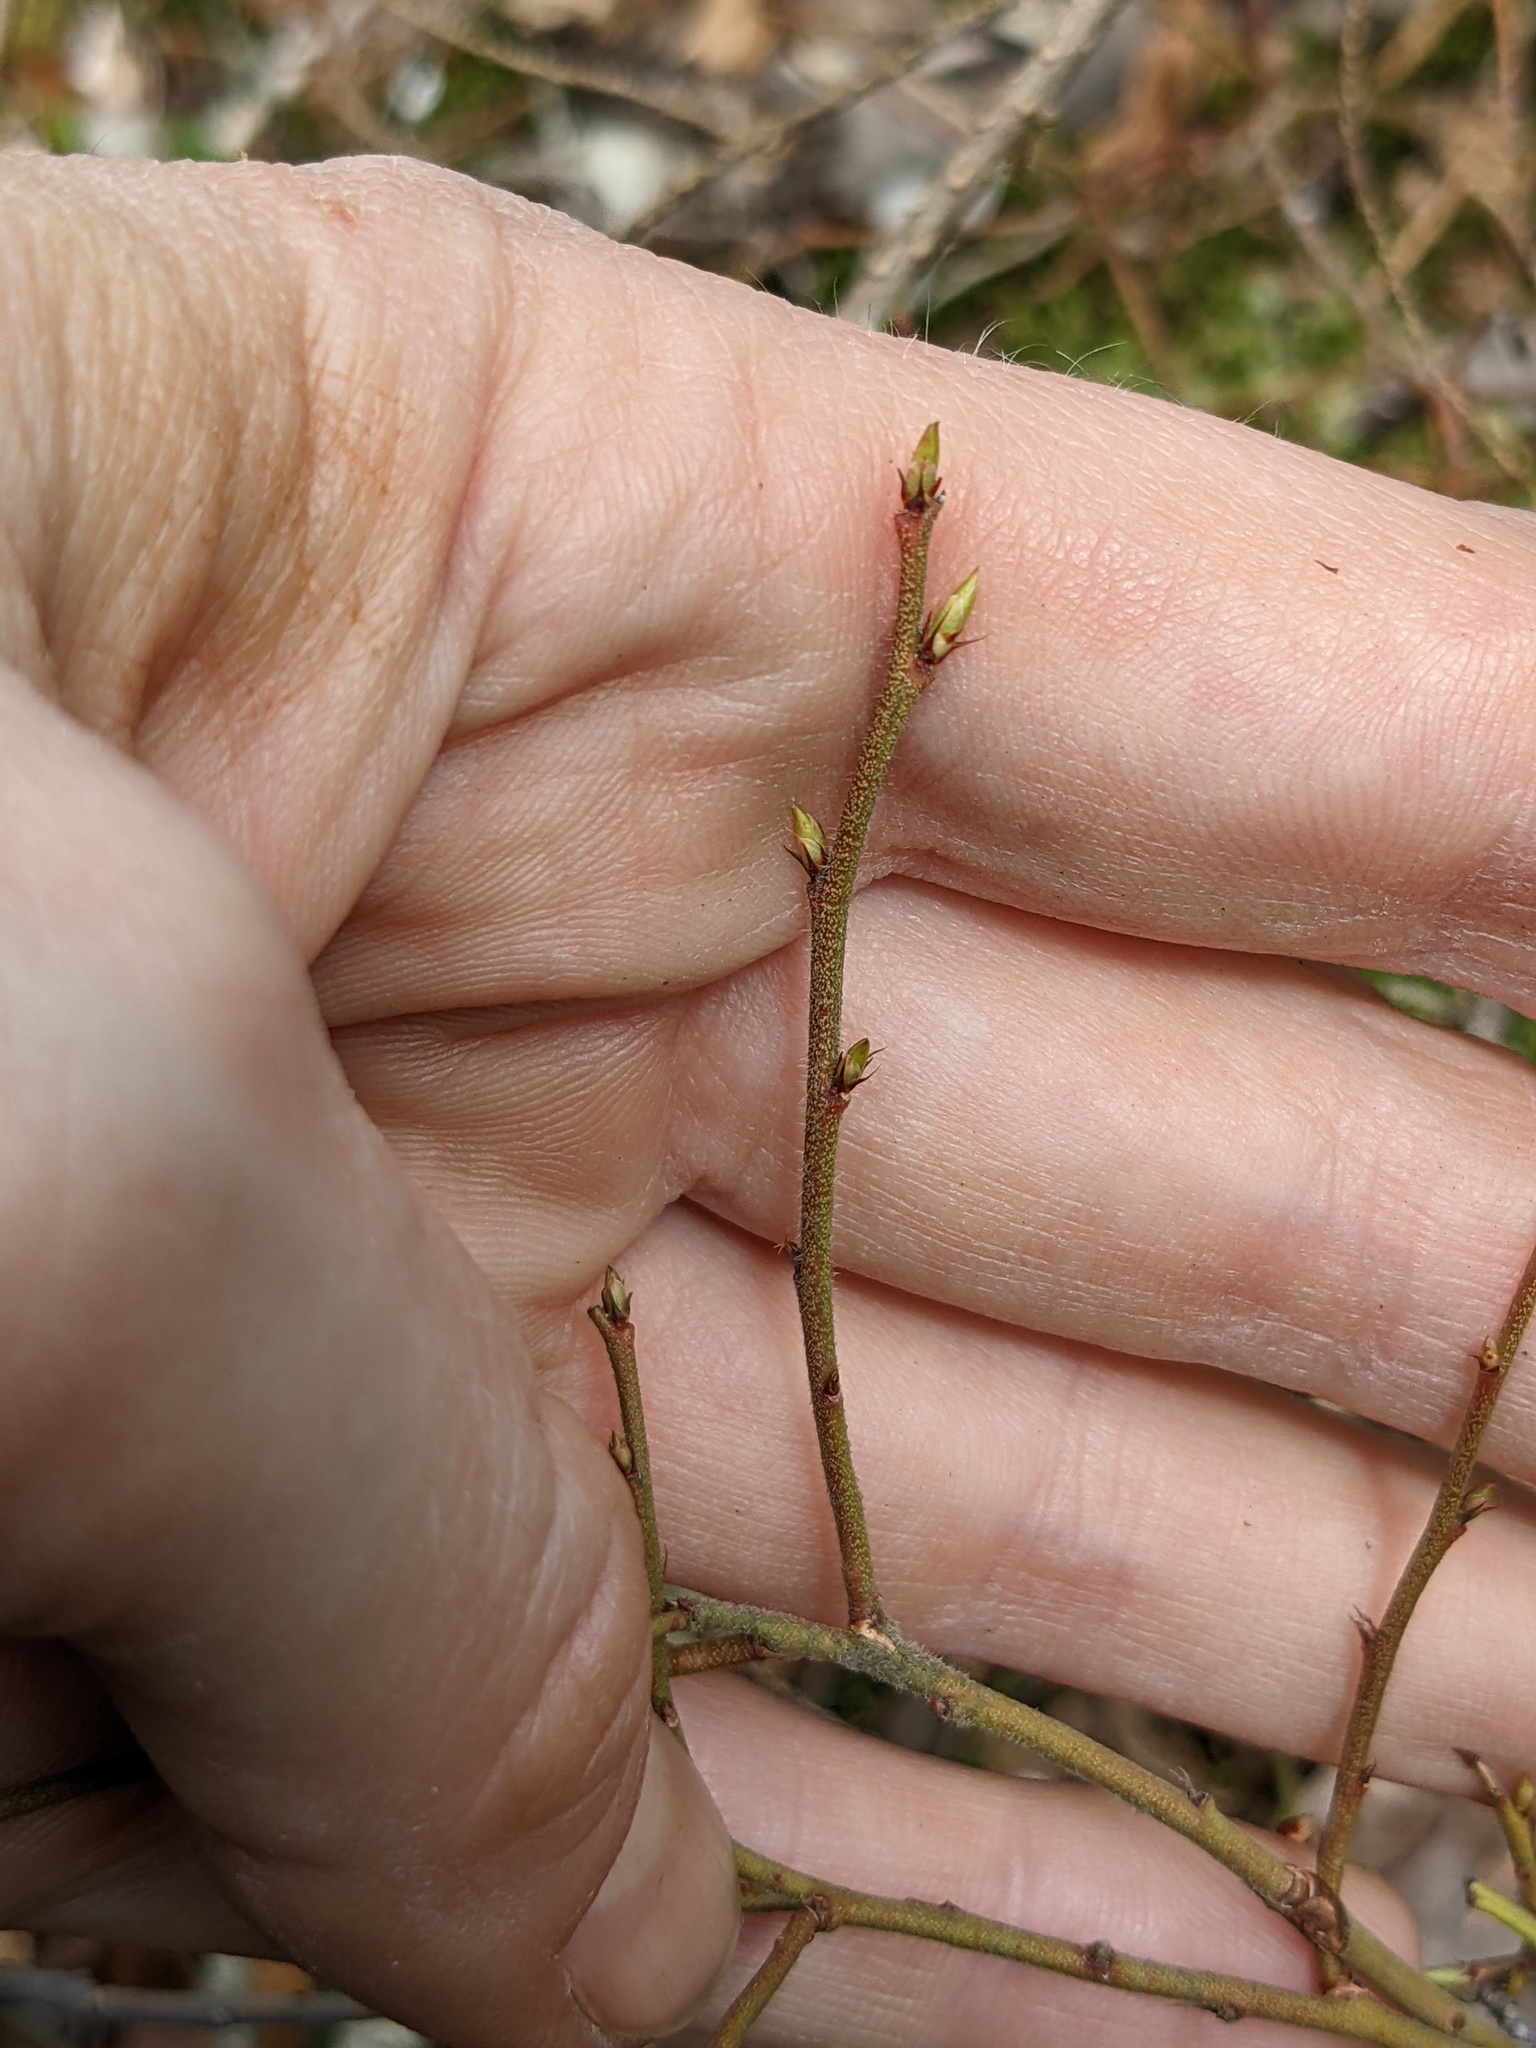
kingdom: Plantae
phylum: Tracheophyta
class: Magnoliopsida
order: Ericales
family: Ericaceae
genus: Vaccinium
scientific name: Vaccinium myrtilloides
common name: Canada blueberry
